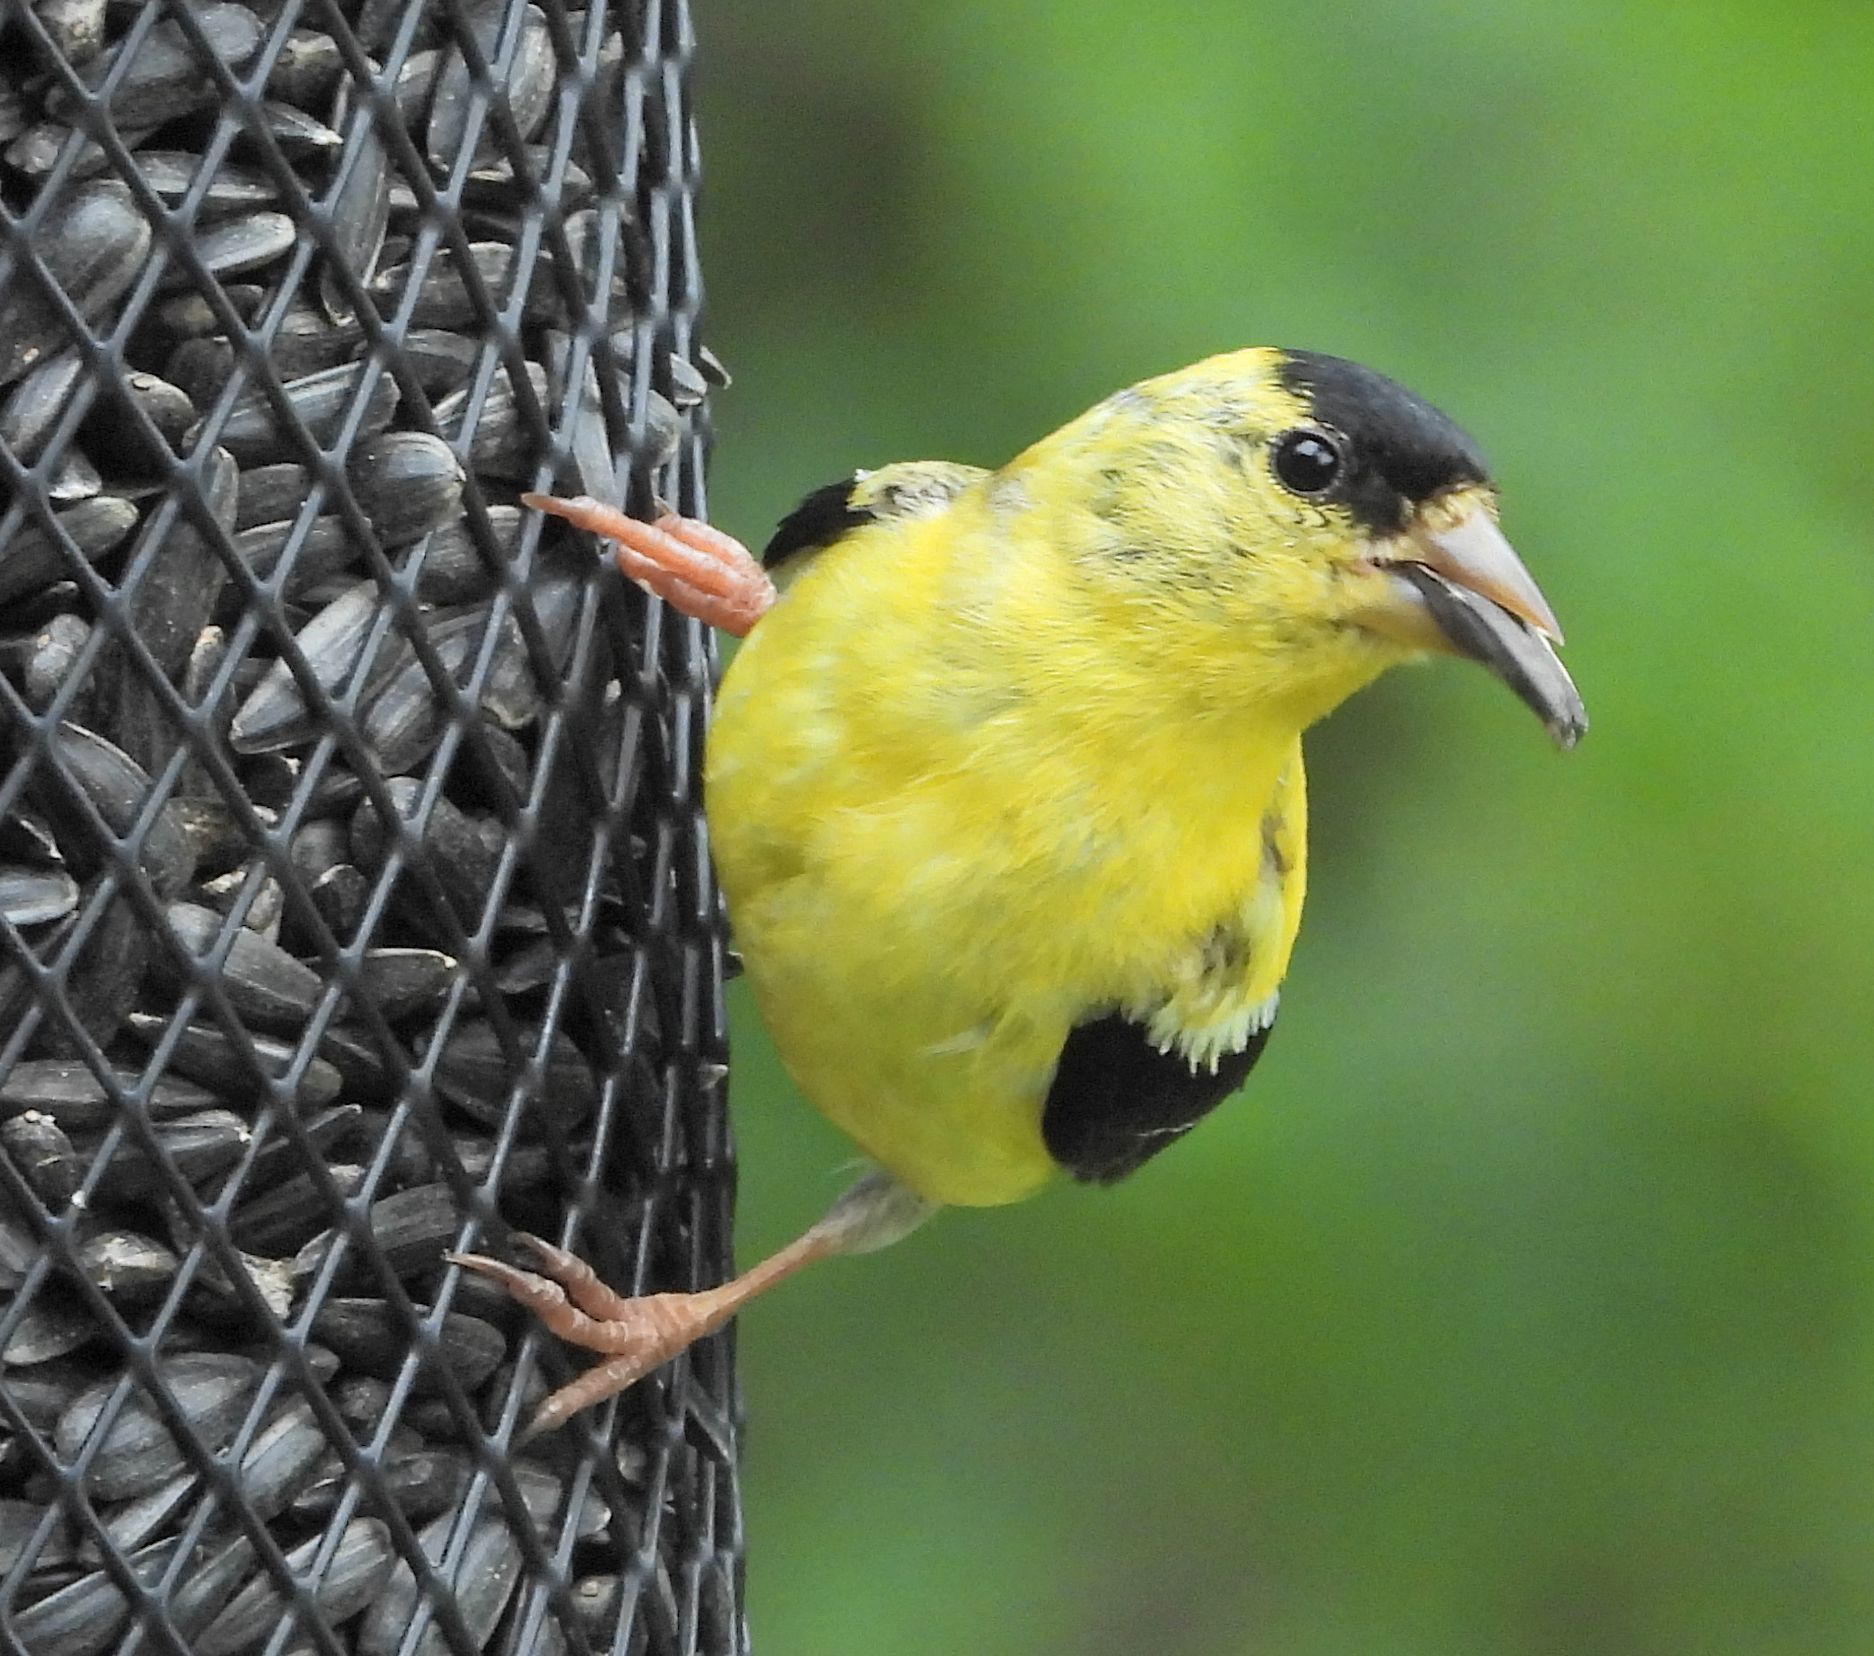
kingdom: Animalia
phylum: Chordata
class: Aves
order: Passeriformes
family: Fringillidae
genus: Spinus
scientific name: Spinus tristis
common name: American goldfinch
